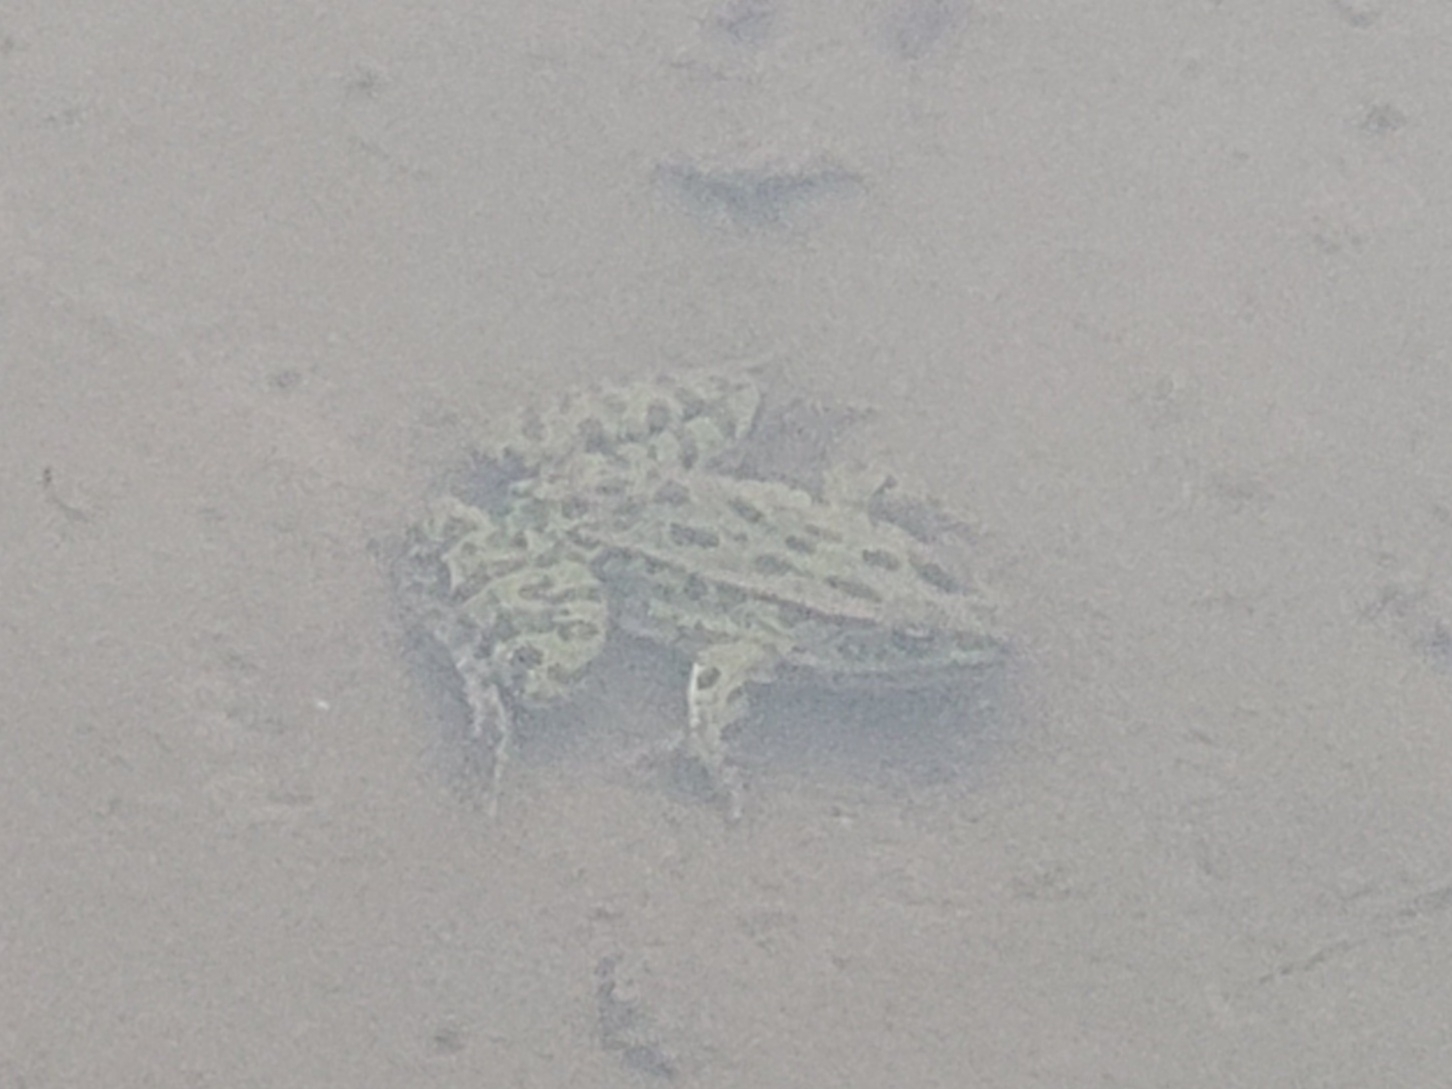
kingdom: Animalia
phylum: Chordata
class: Amphibia
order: Anura
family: Ranidae
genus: Lithobates
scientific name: Lithobates pipiens
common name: Northern leopard frog
